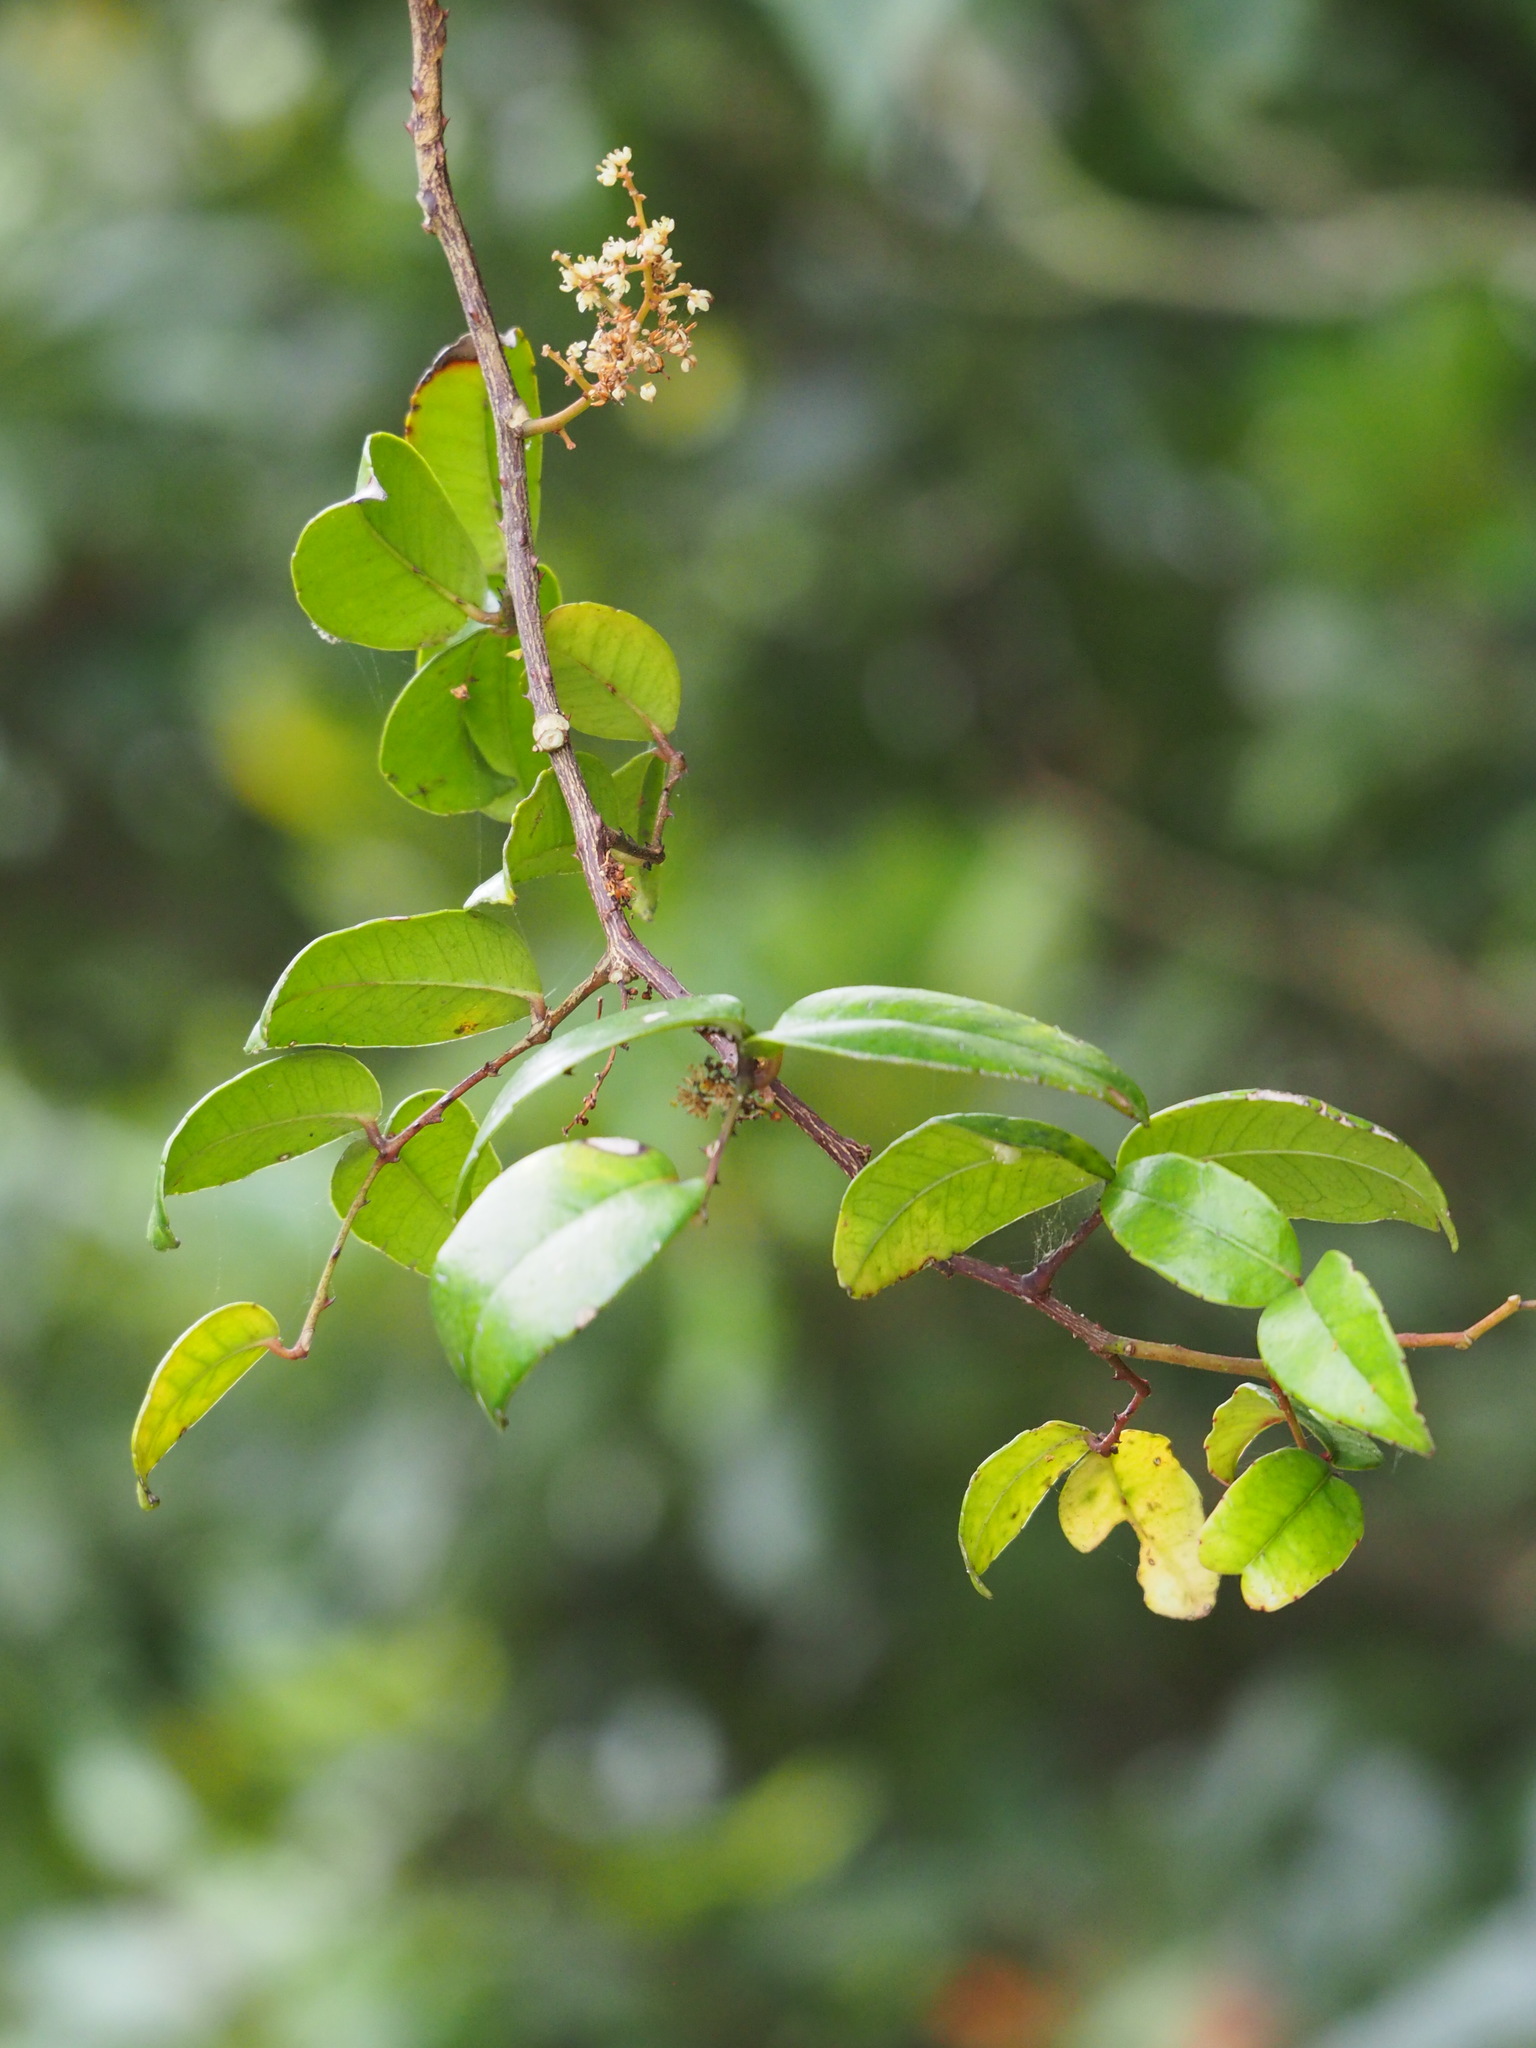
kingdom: Plantae
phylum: Tracheophyta
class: Magnoliopsida
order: Sapindales
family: Rutaceae
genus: Zanthoxylum
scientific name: Zanthoxylum nitidum
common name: Shiny-leaf prickly-ash
